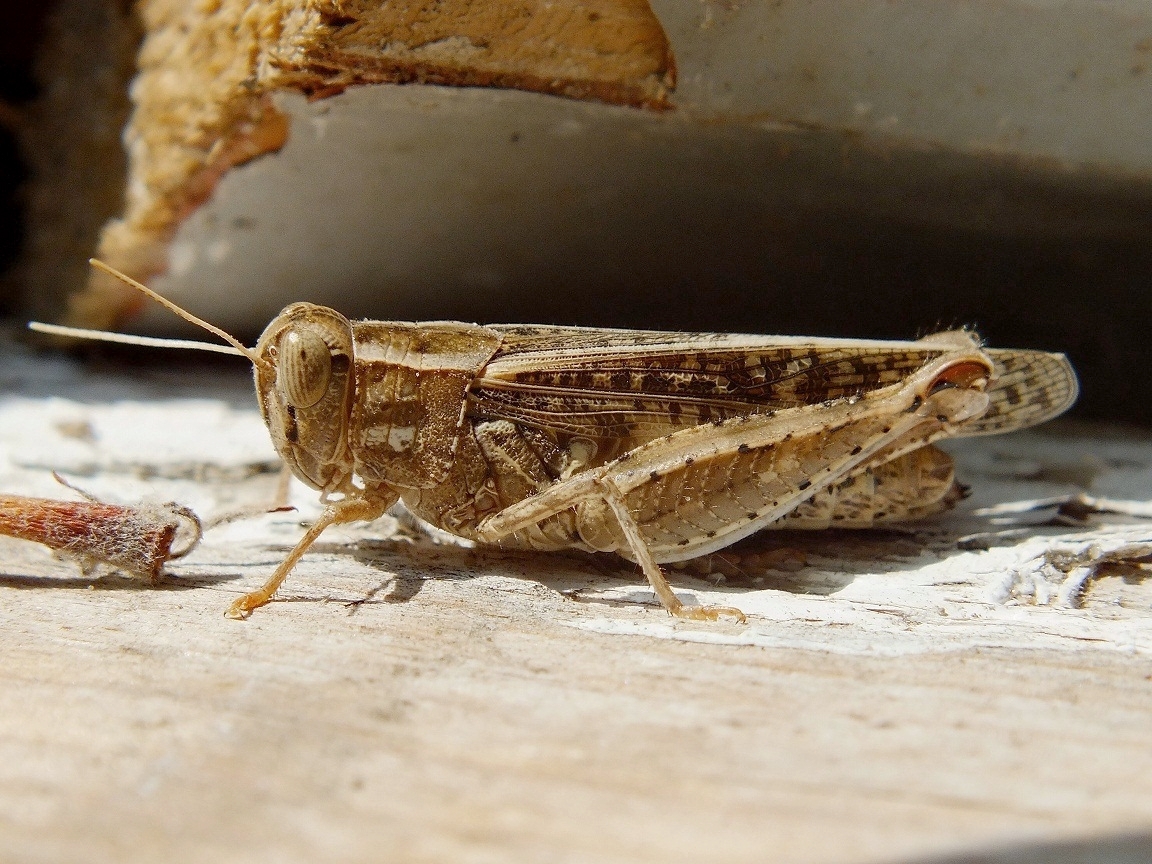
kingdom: Animalia
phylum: Arthropoda
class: Insecta
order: Orthoptera
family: Acrididae
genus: Calliptamus
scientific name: Calliptamus italicus
